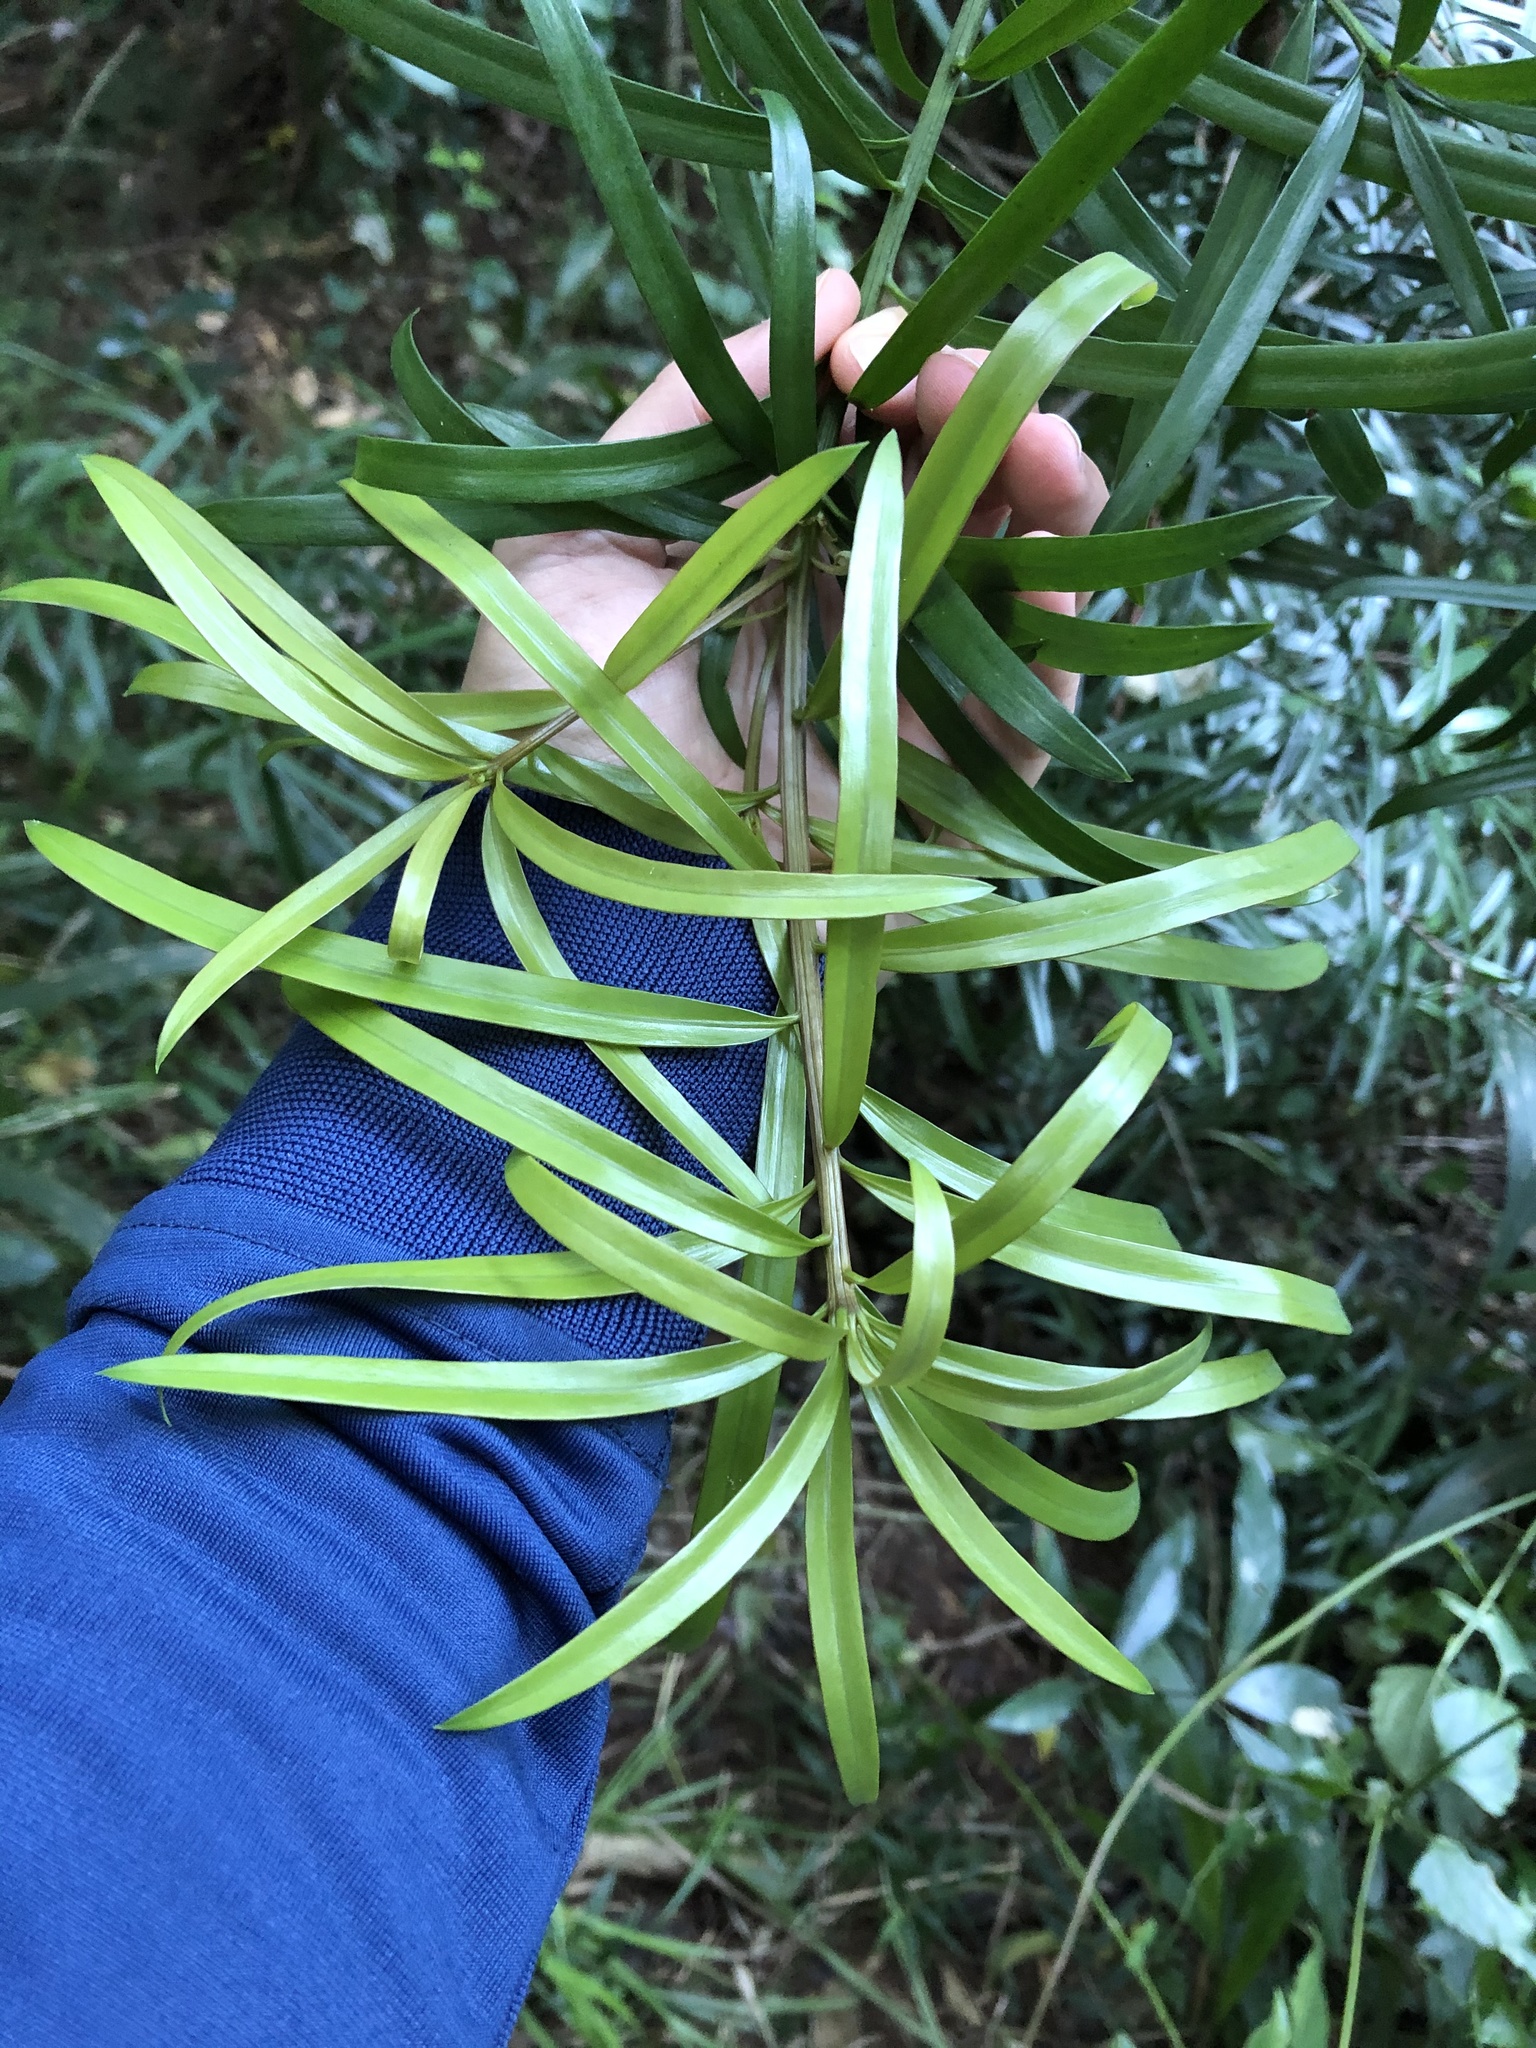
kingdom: Plantae
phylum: Tracheophyta
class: Pinopsida
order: Pinales
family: Podocarpaceae
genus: Podocarpus
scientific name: Podocarpus henkelii
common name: Henkel's yellowwood
